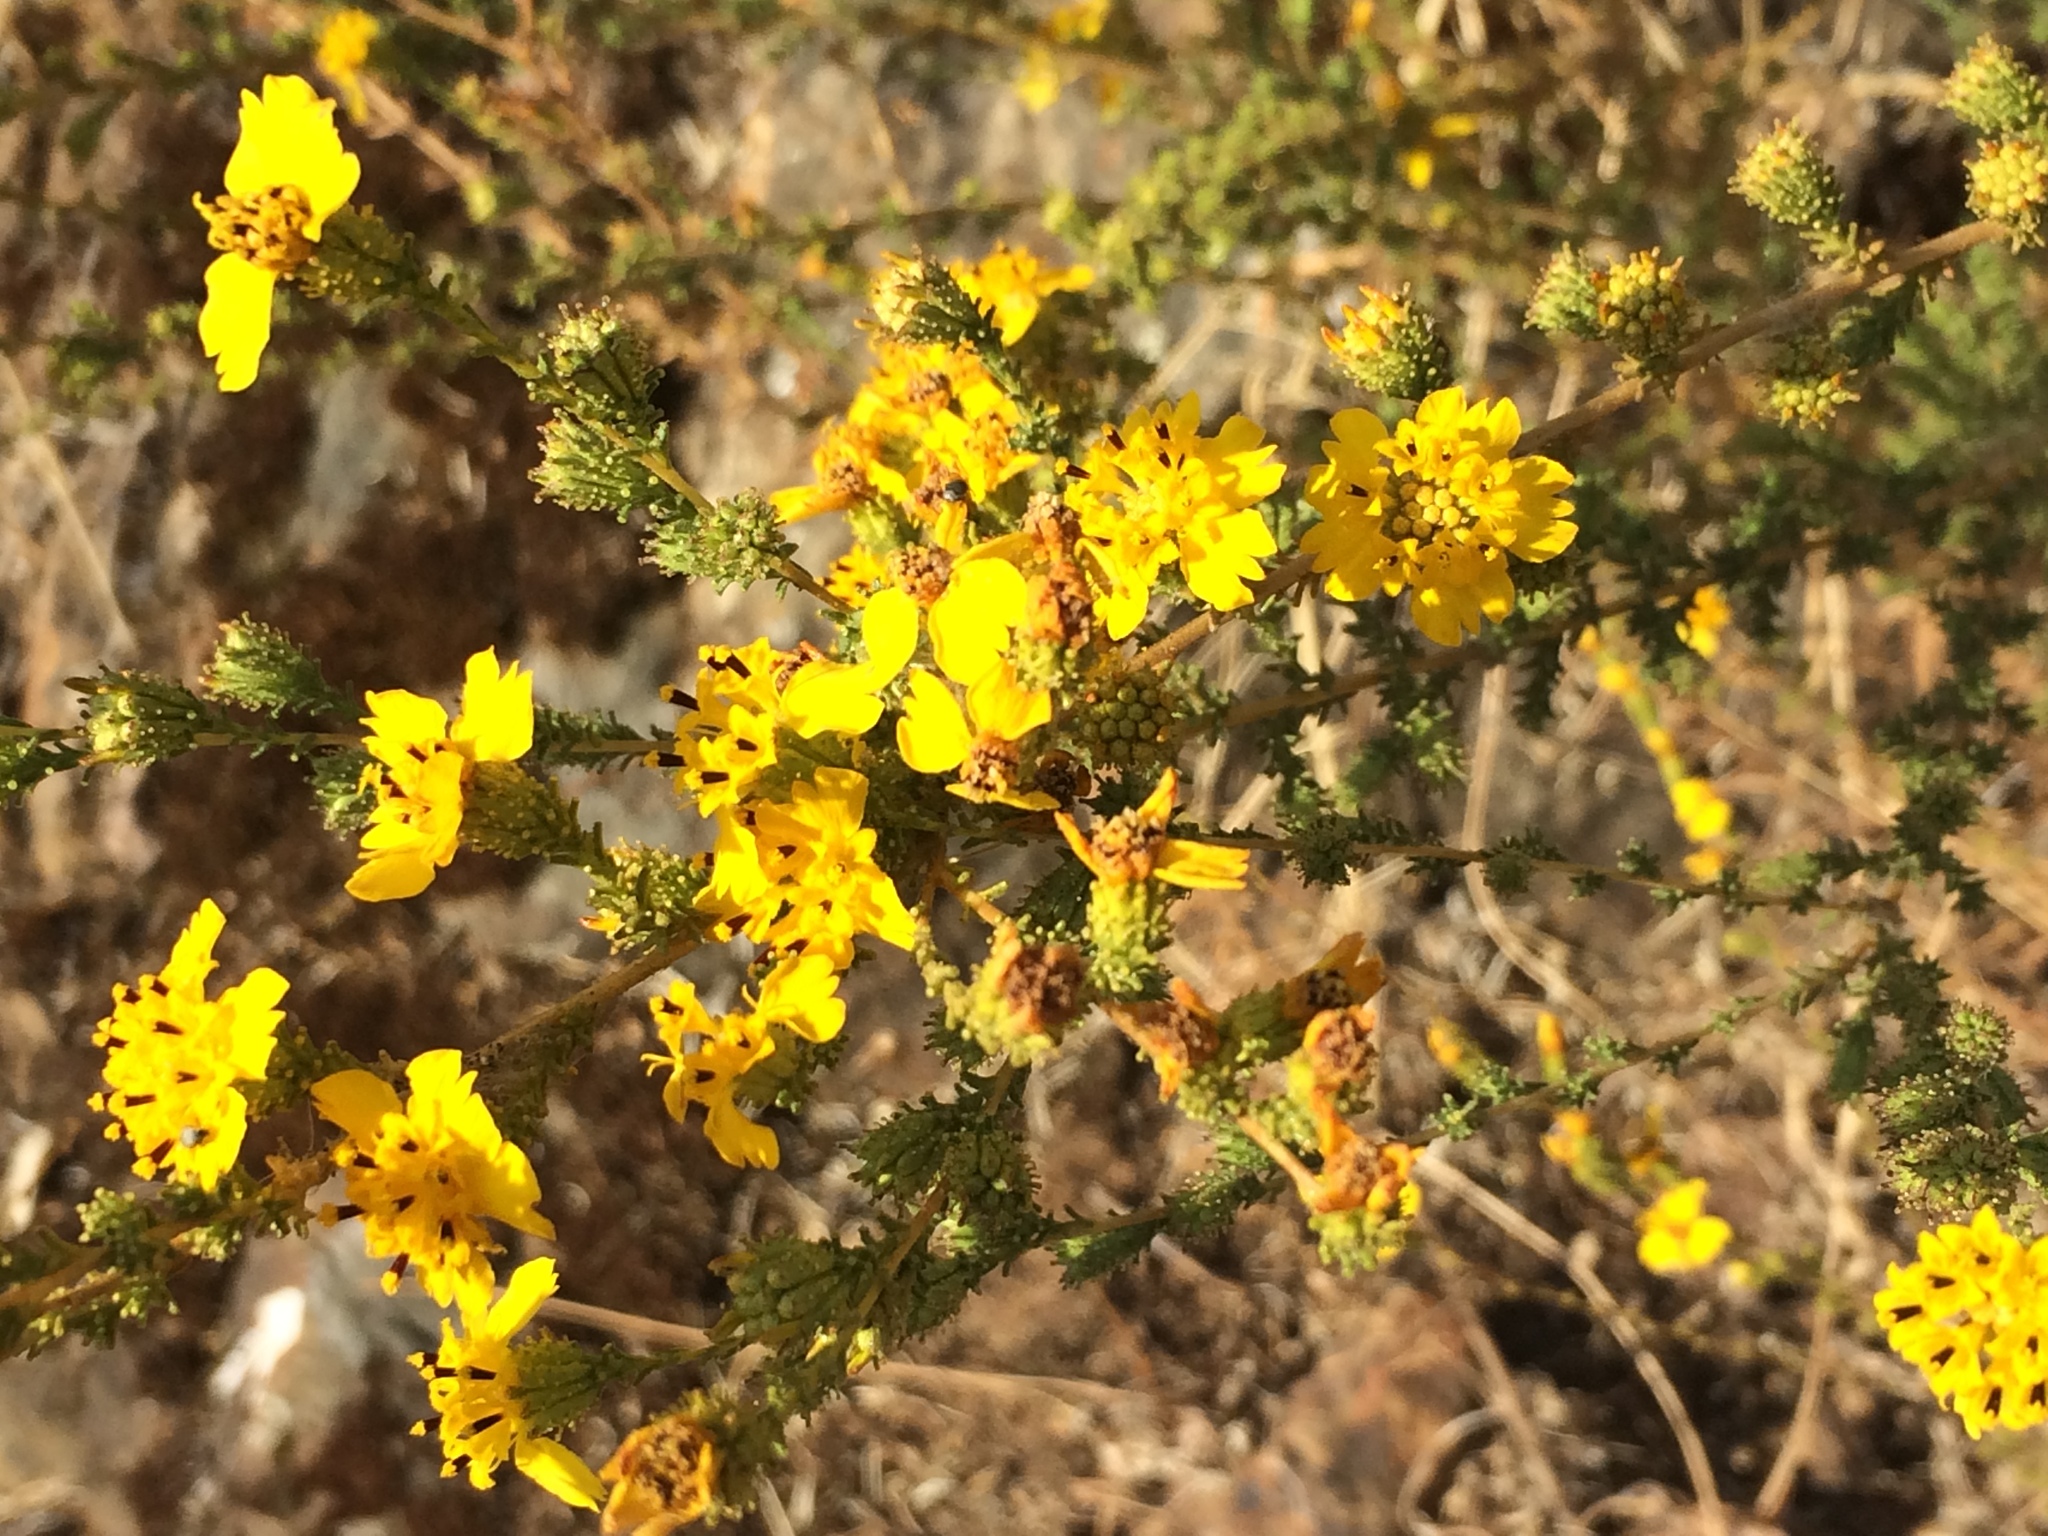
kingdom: Plantae
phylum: Tracheophyta
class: Magnoliopsida
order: Asterales
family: Asteraceae
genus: Holocarpha
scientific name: Holocarpha virgata
